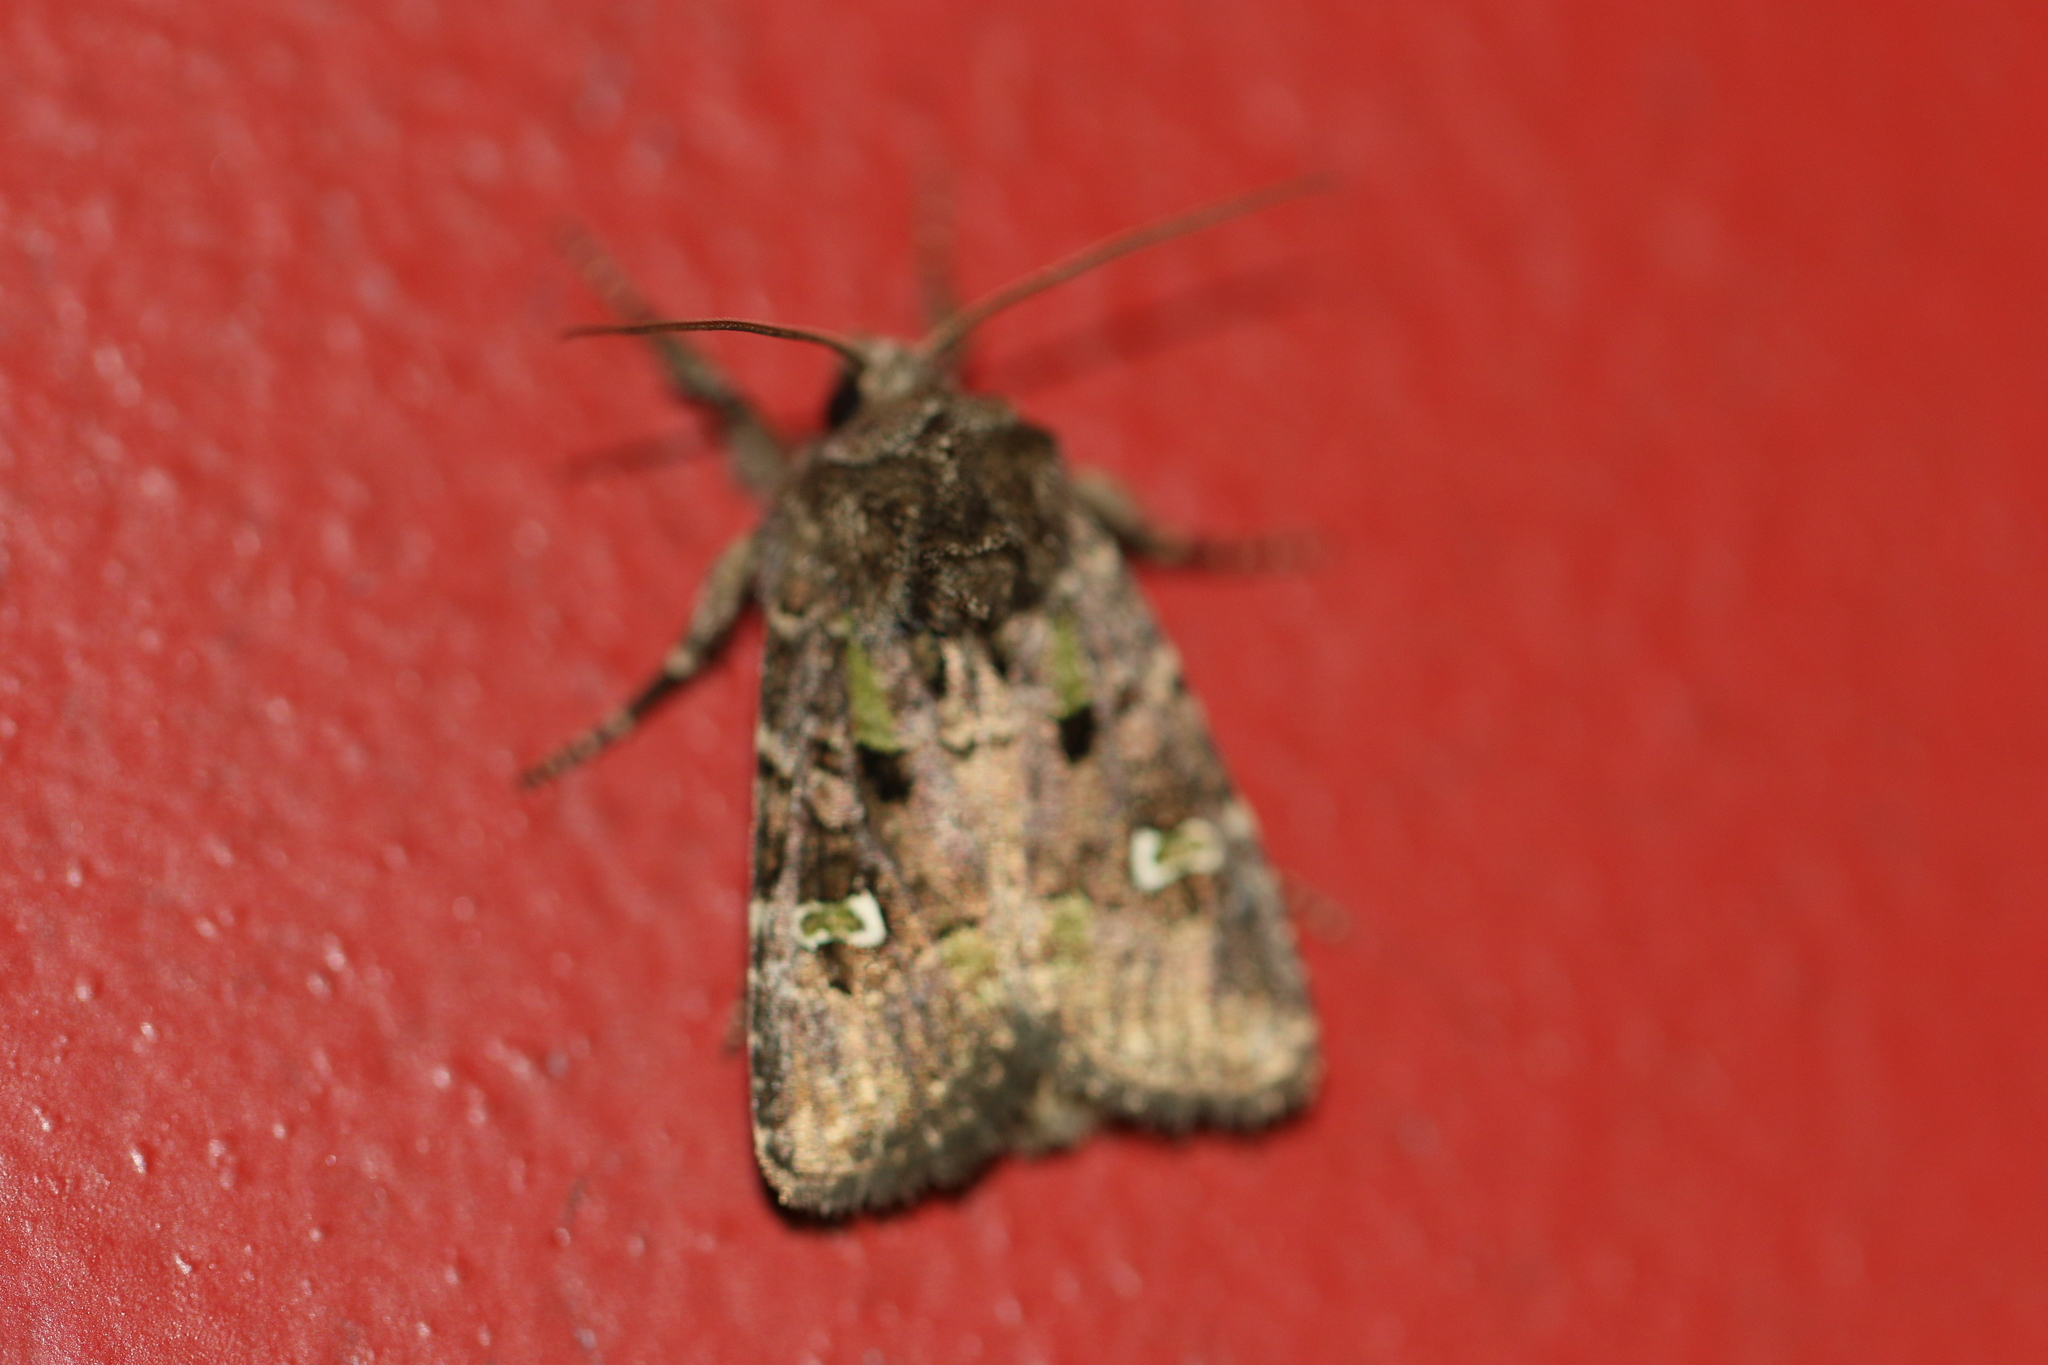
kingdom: Animalia
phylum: Arthropoda
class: Insecta
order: Lepidoptera
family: Noctuidae
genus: Lacinipolia
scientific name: Lacinipolia renigera
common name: Kidney-spotted minor
